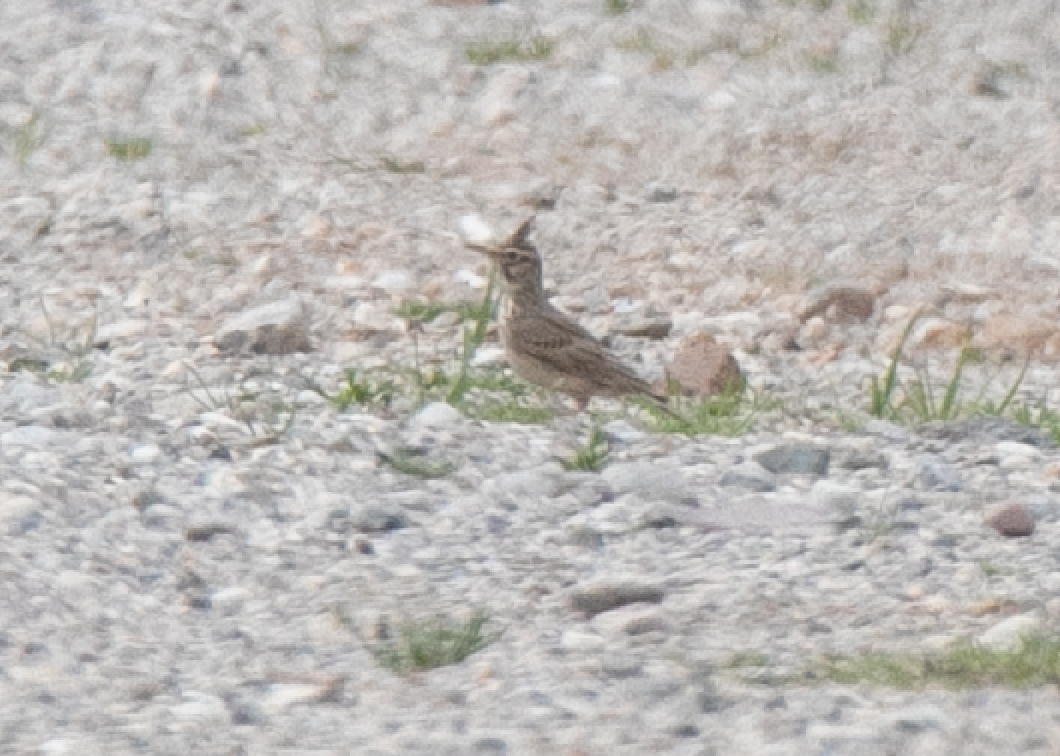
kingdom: Animalia
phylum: Chordata
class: Aves
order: Passeriformes
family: Alaudidae
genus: Galerida
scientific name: Galerida cristata
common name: Crested lark
